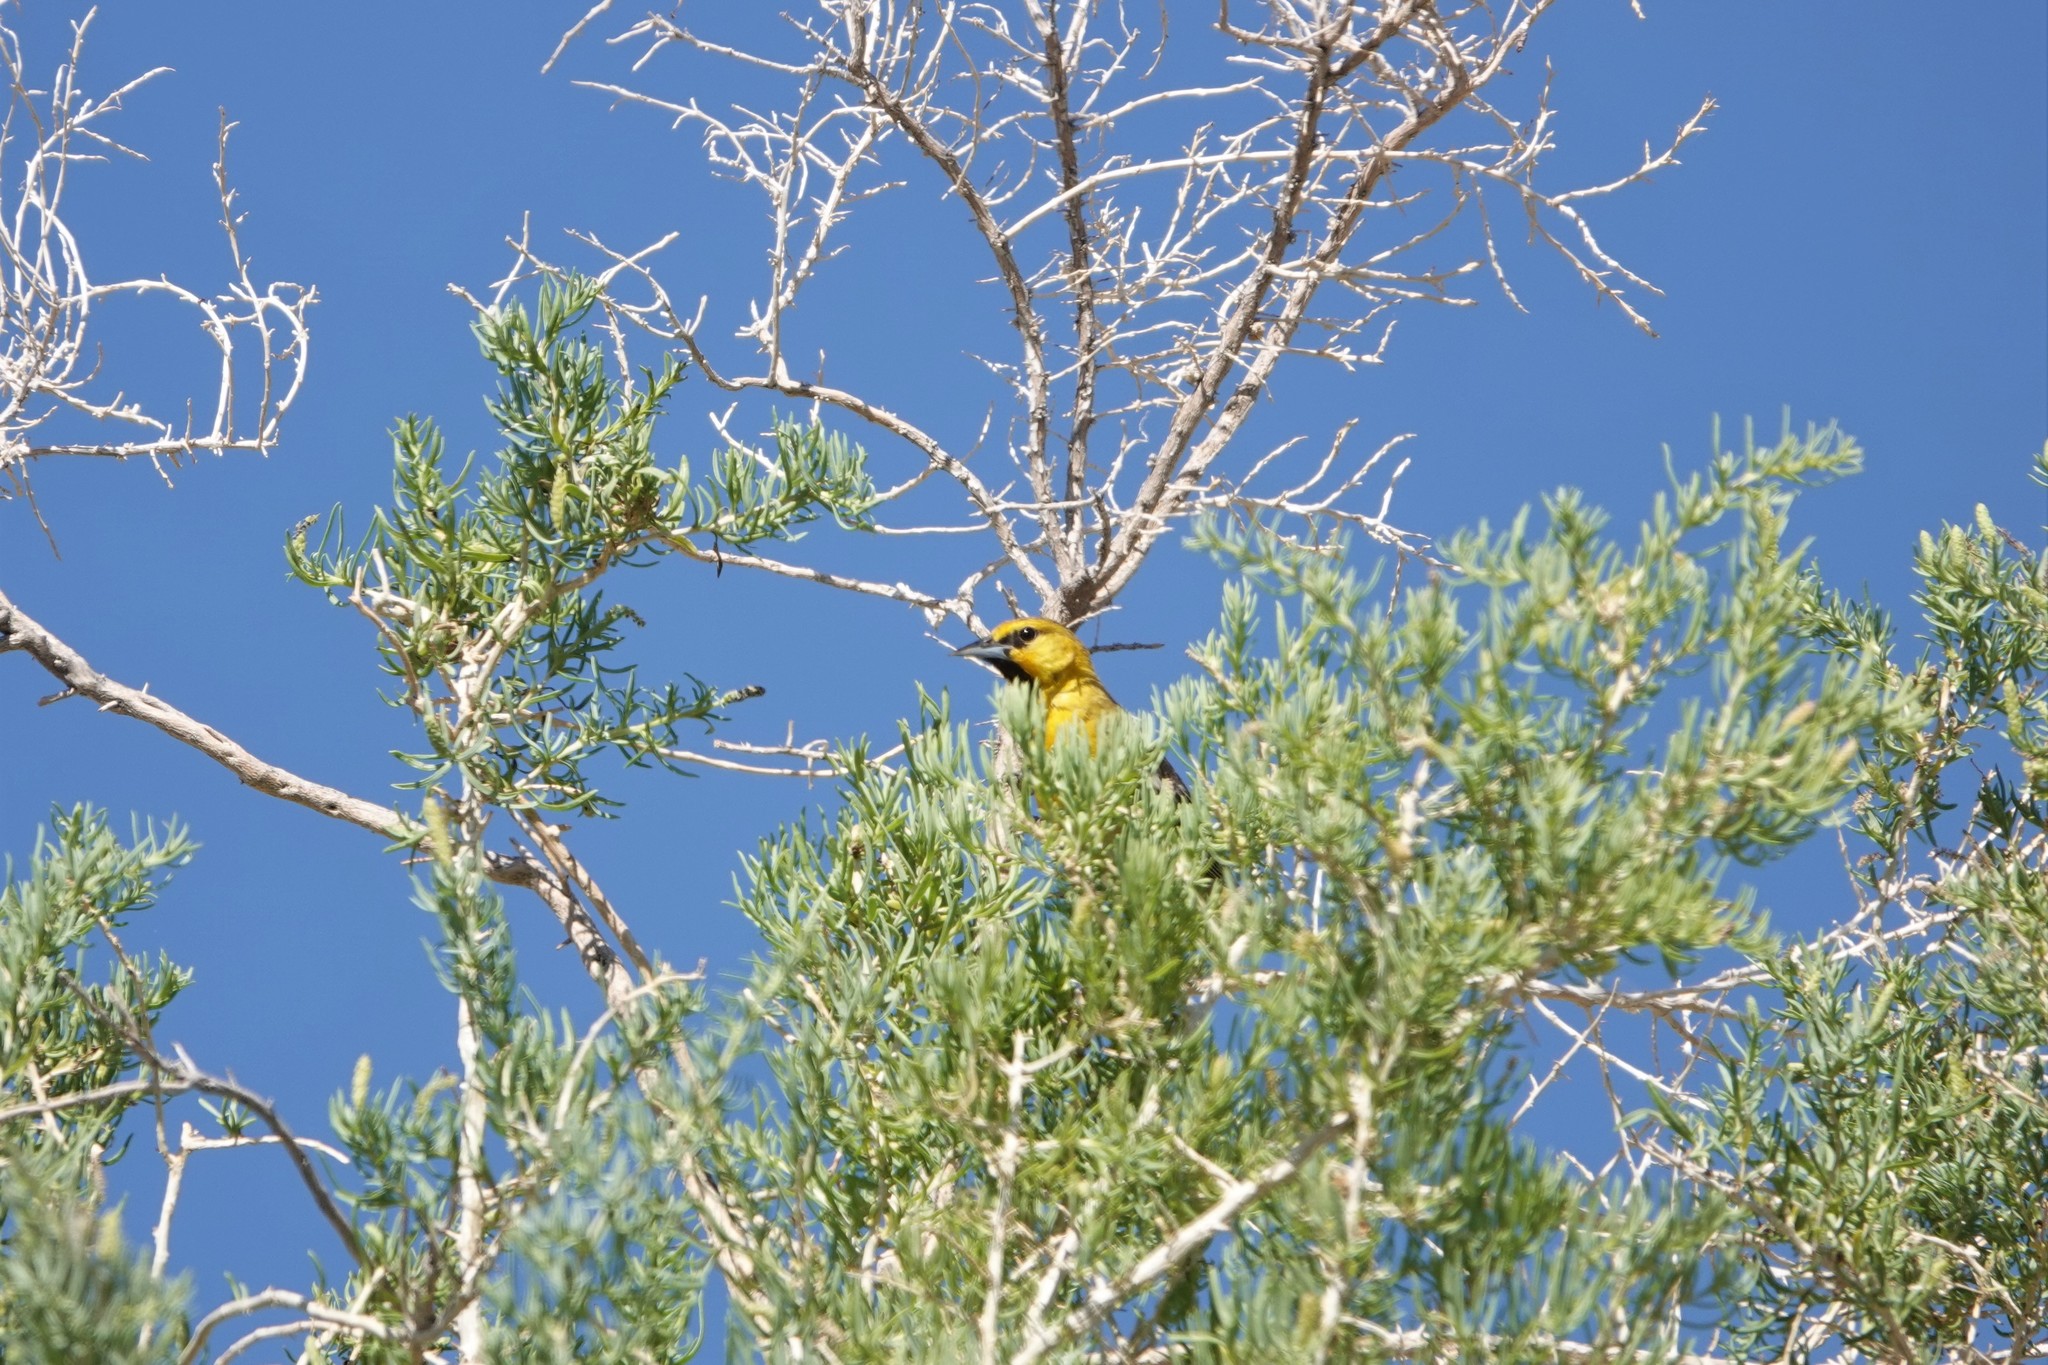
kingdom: Animalia
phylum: Chordata
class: Aves
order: Passeriformes
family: Icteridae
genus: Icterus
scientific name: Icterus bullockii
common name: Bullock's oriole
